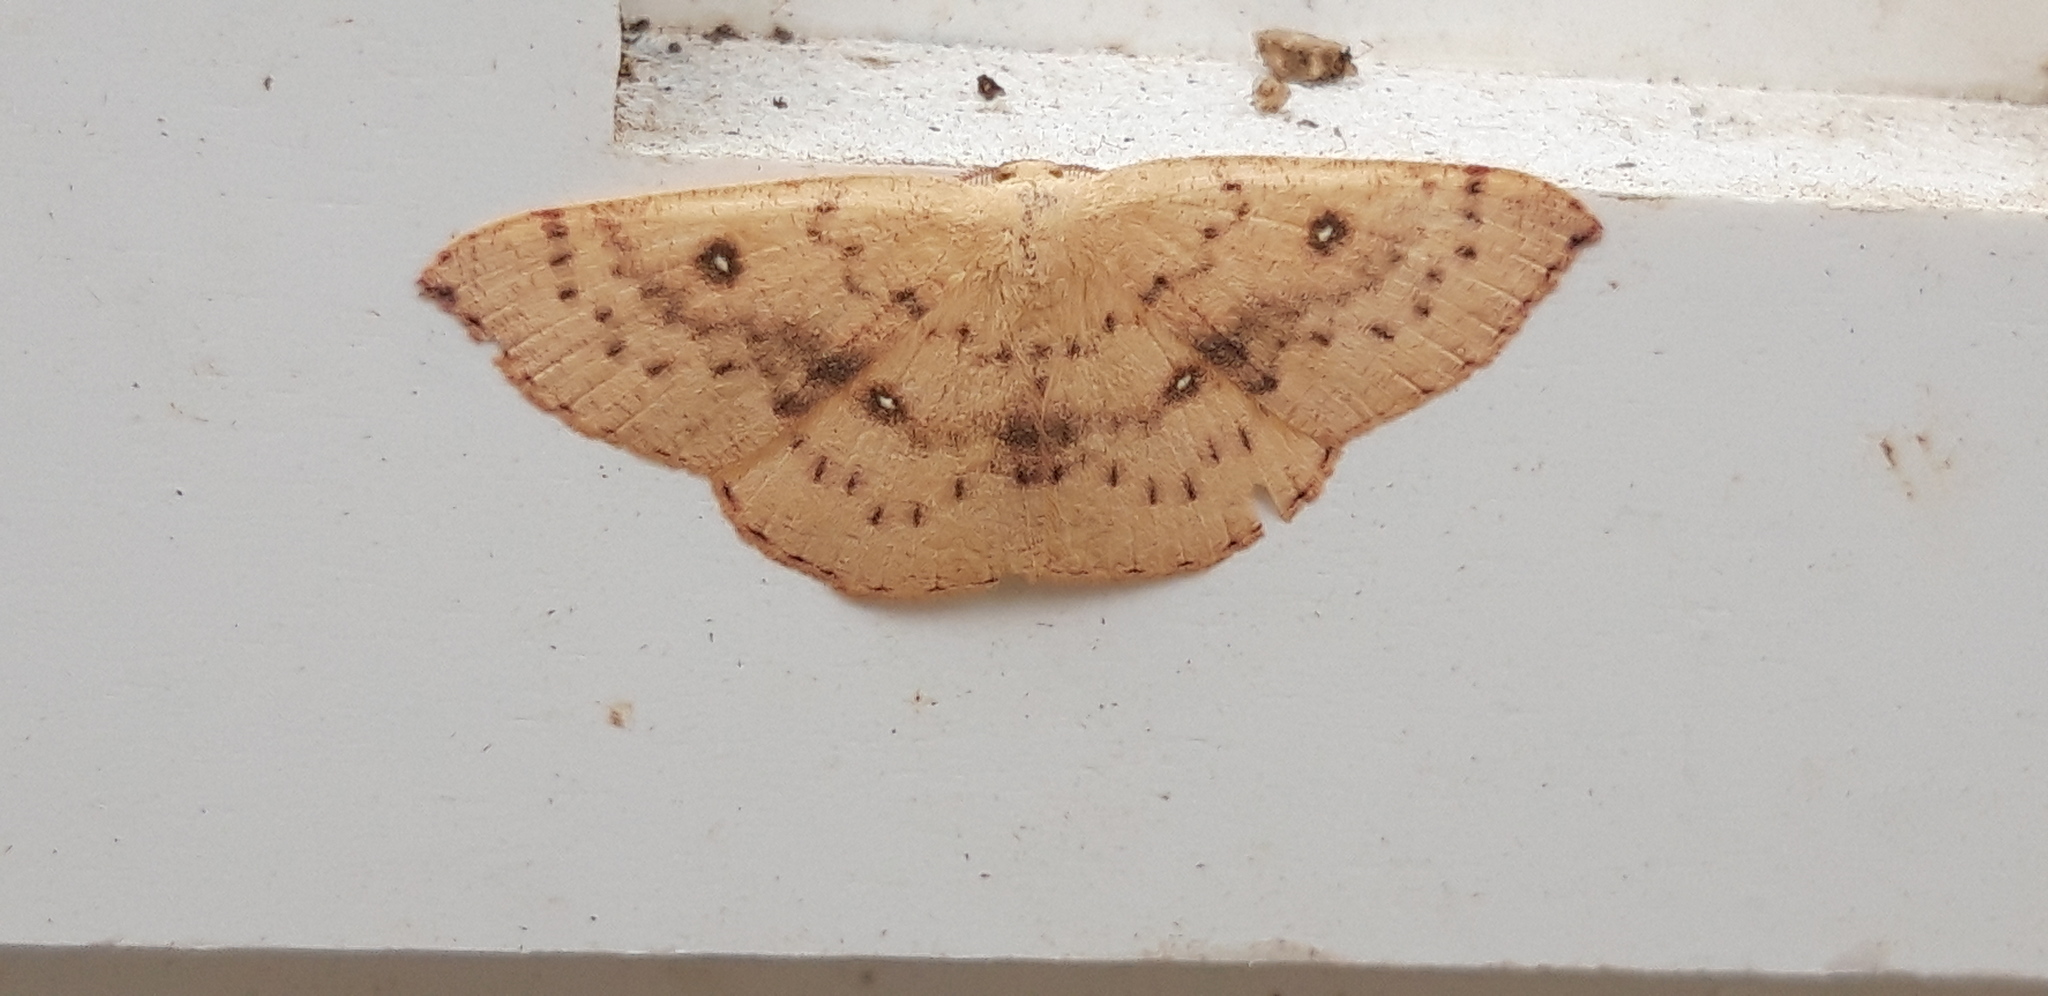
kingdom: Animalia
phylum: Arthropoda
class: Insecta
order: Lepidoptera
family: Geometridae
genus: Cyclophora
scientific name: Cyclophora puppillaria
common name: Blair's mocha
